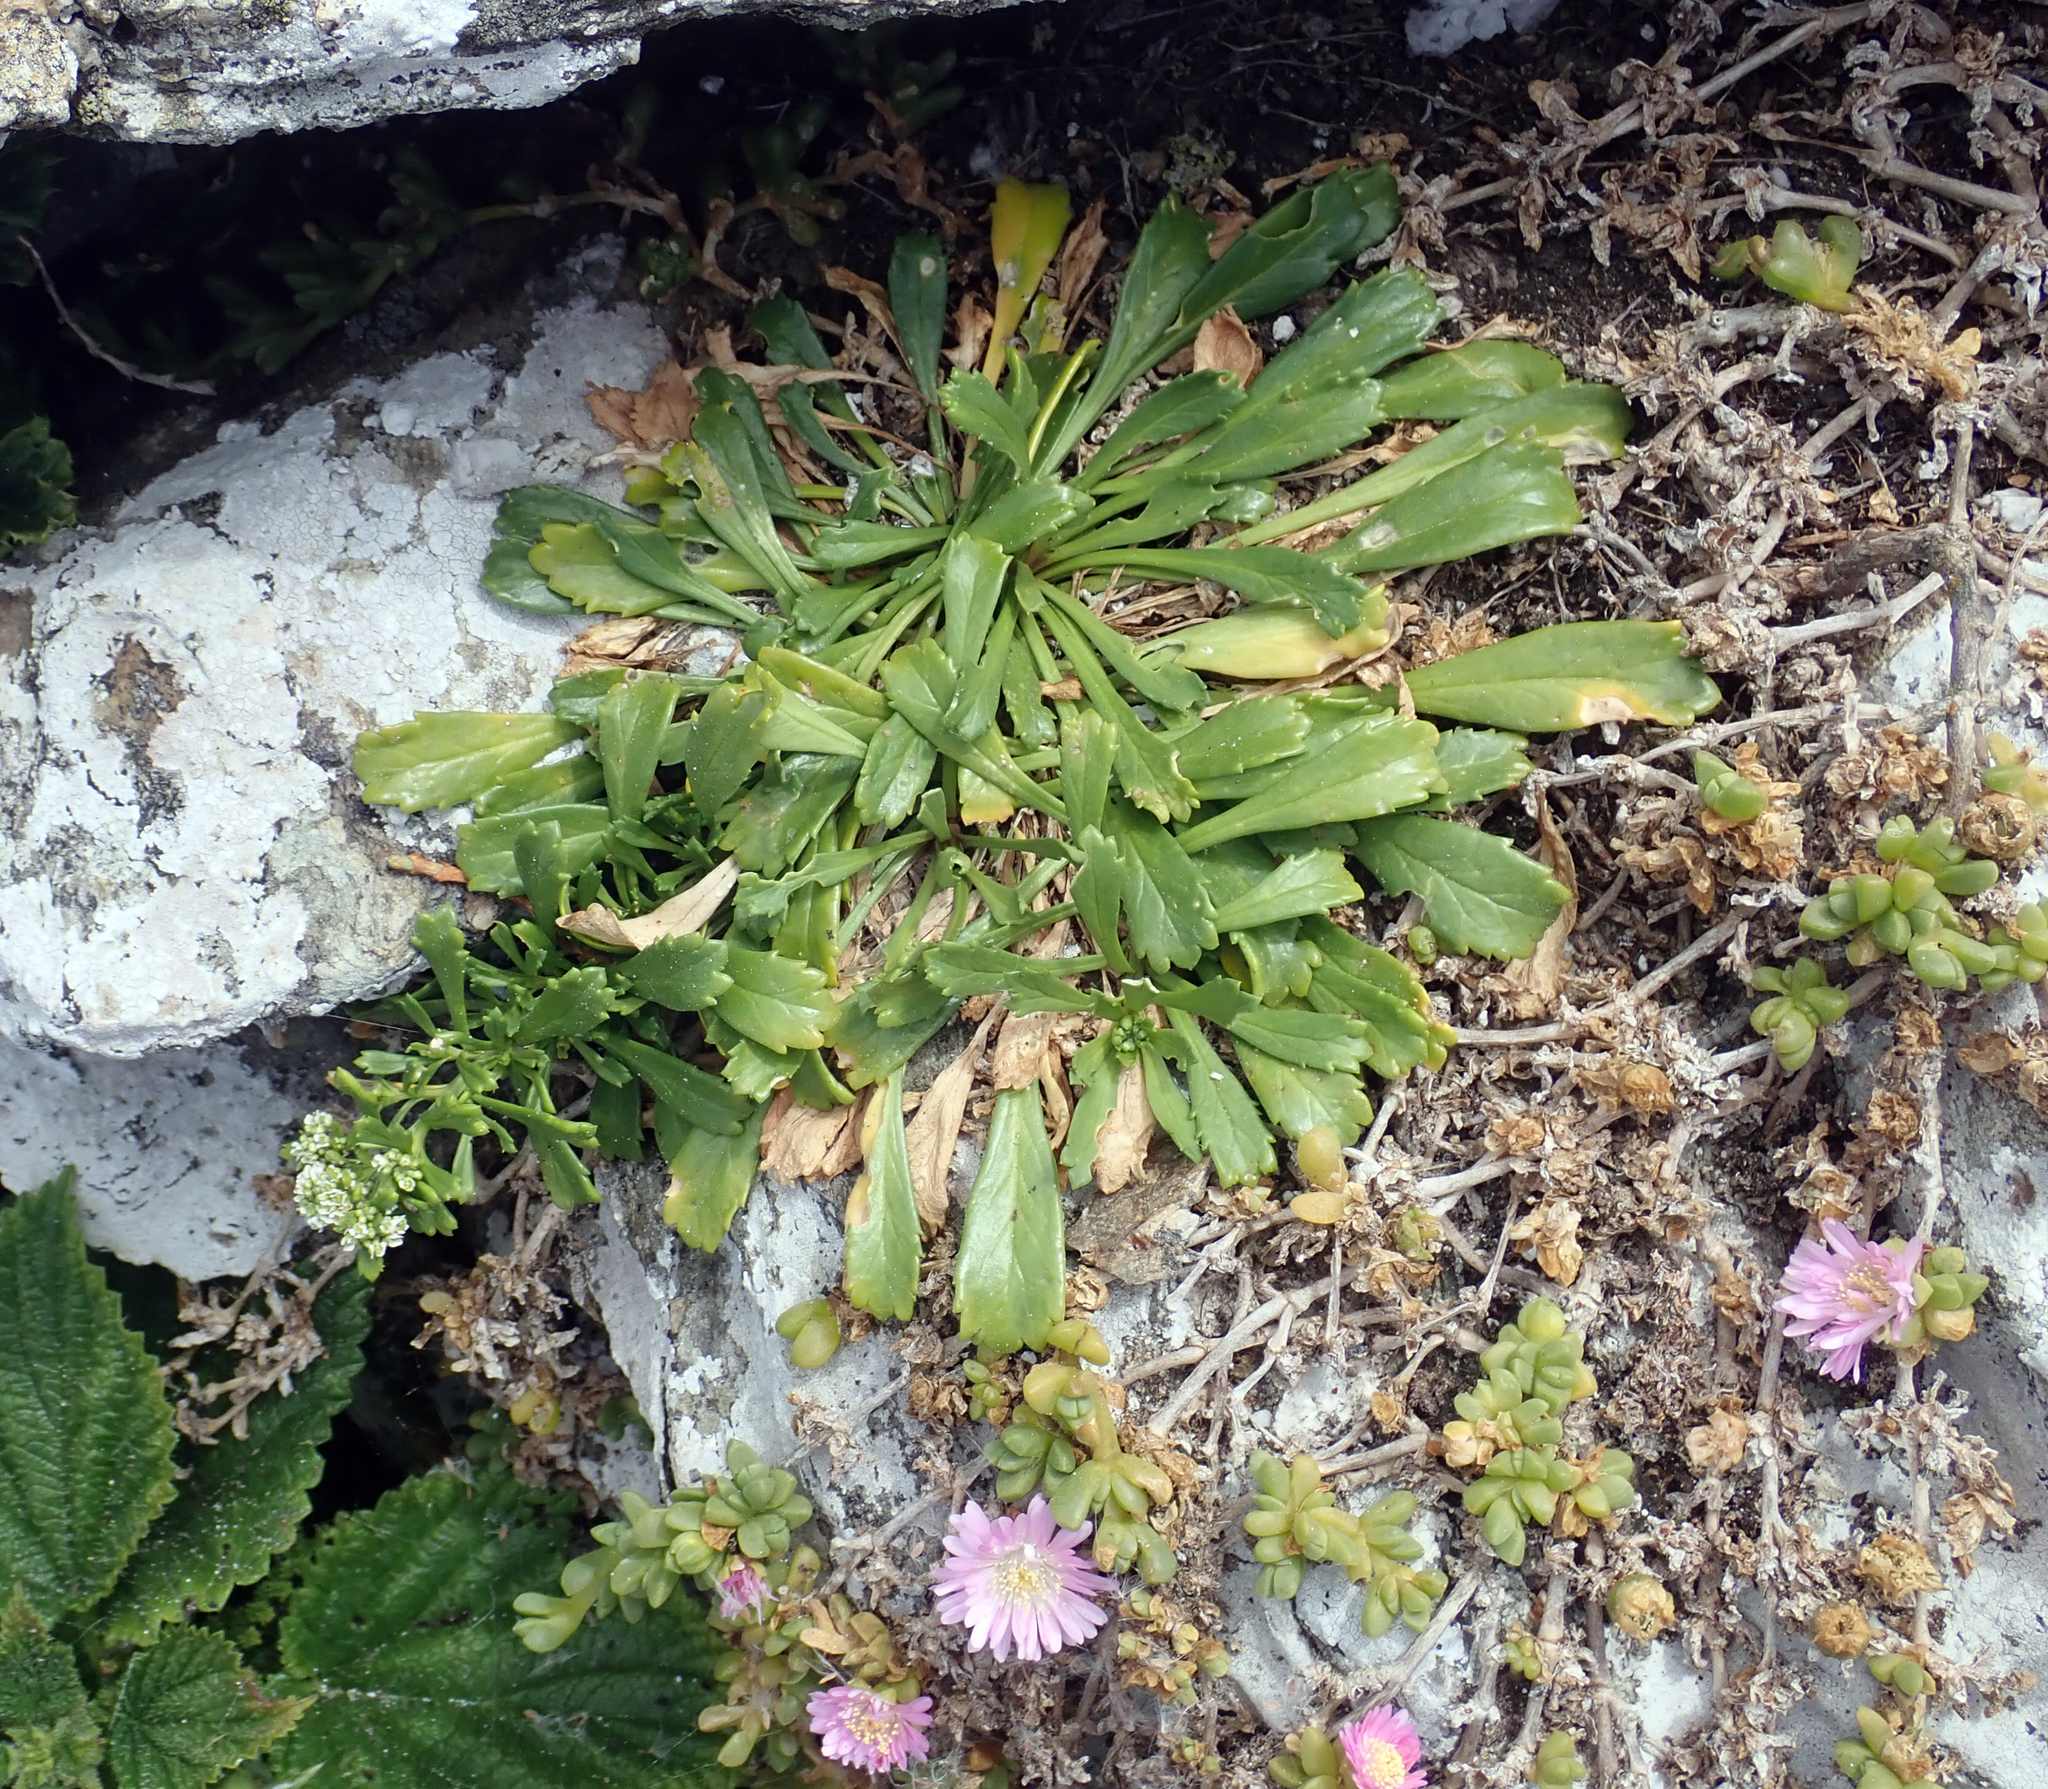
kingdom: Plantae
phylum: Tracheophyta
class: Magnoliopsida
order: Brassicales
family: Brassicaceae
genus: Lepidium
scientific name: Lepidium oligodontum
